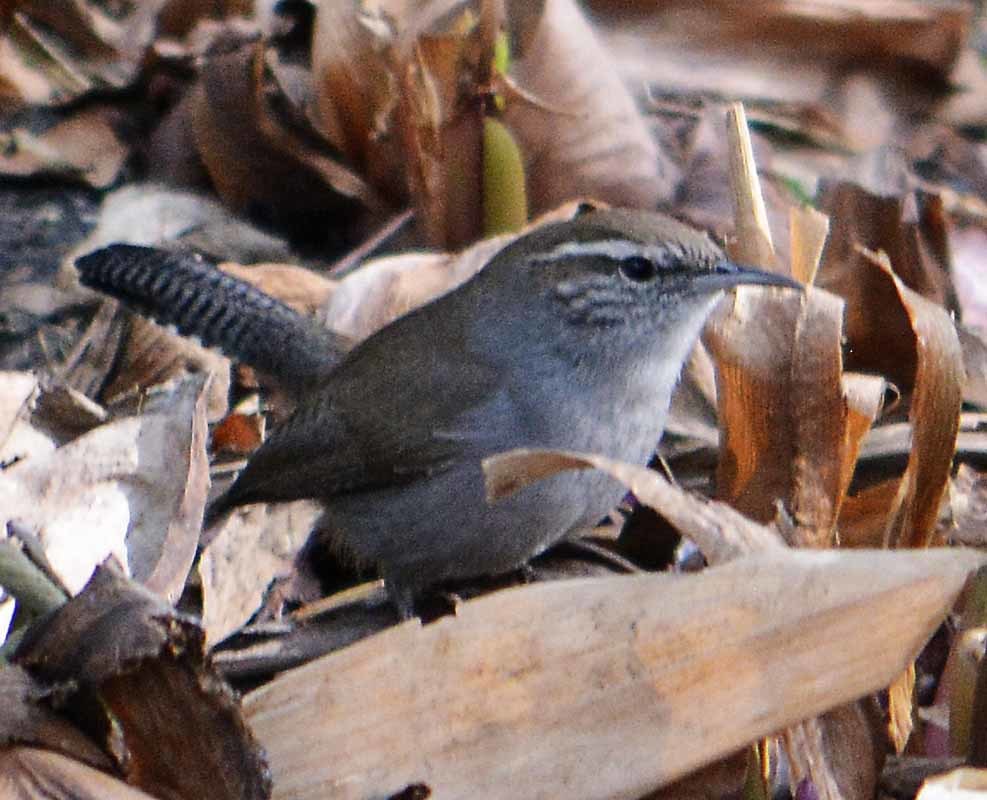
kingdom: Animalia
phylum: Chordata
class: Aves
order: Passeriformes
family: Troglodytidae
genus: Thryomanes
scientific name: Thryomanes bewickii
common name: Bewick's wren
